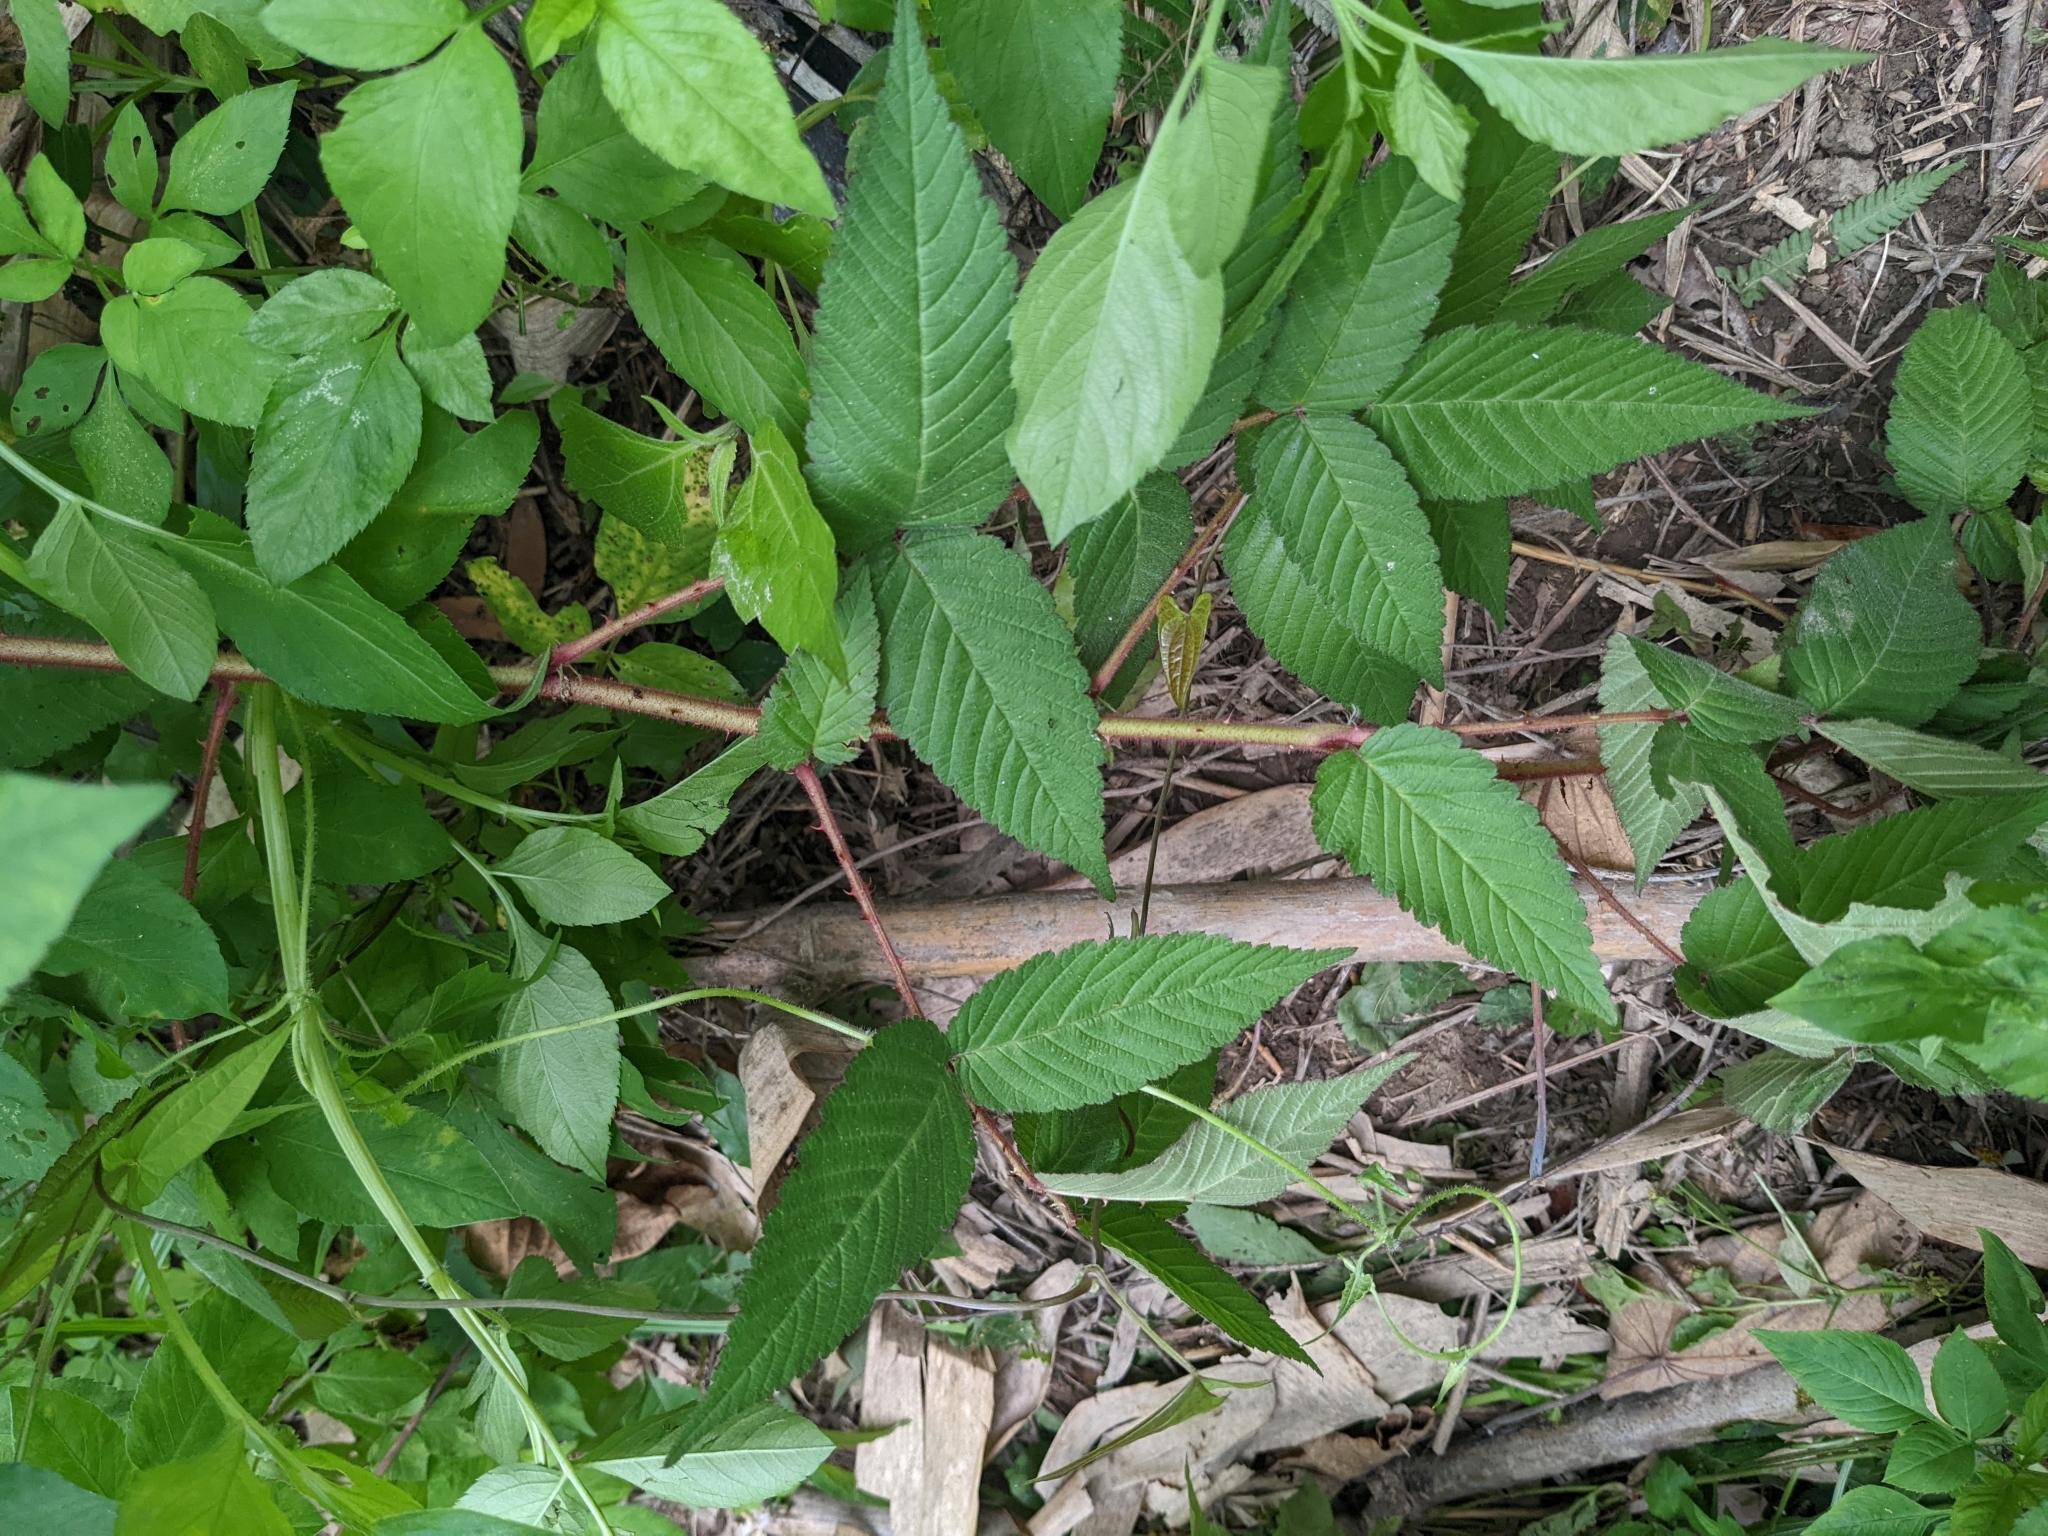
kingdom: Plantae
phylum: Tracheophyta
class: Magnoliopsida
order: Rosales
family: Rosaceae
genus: Rubus
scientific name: Rubus croceacanthus
